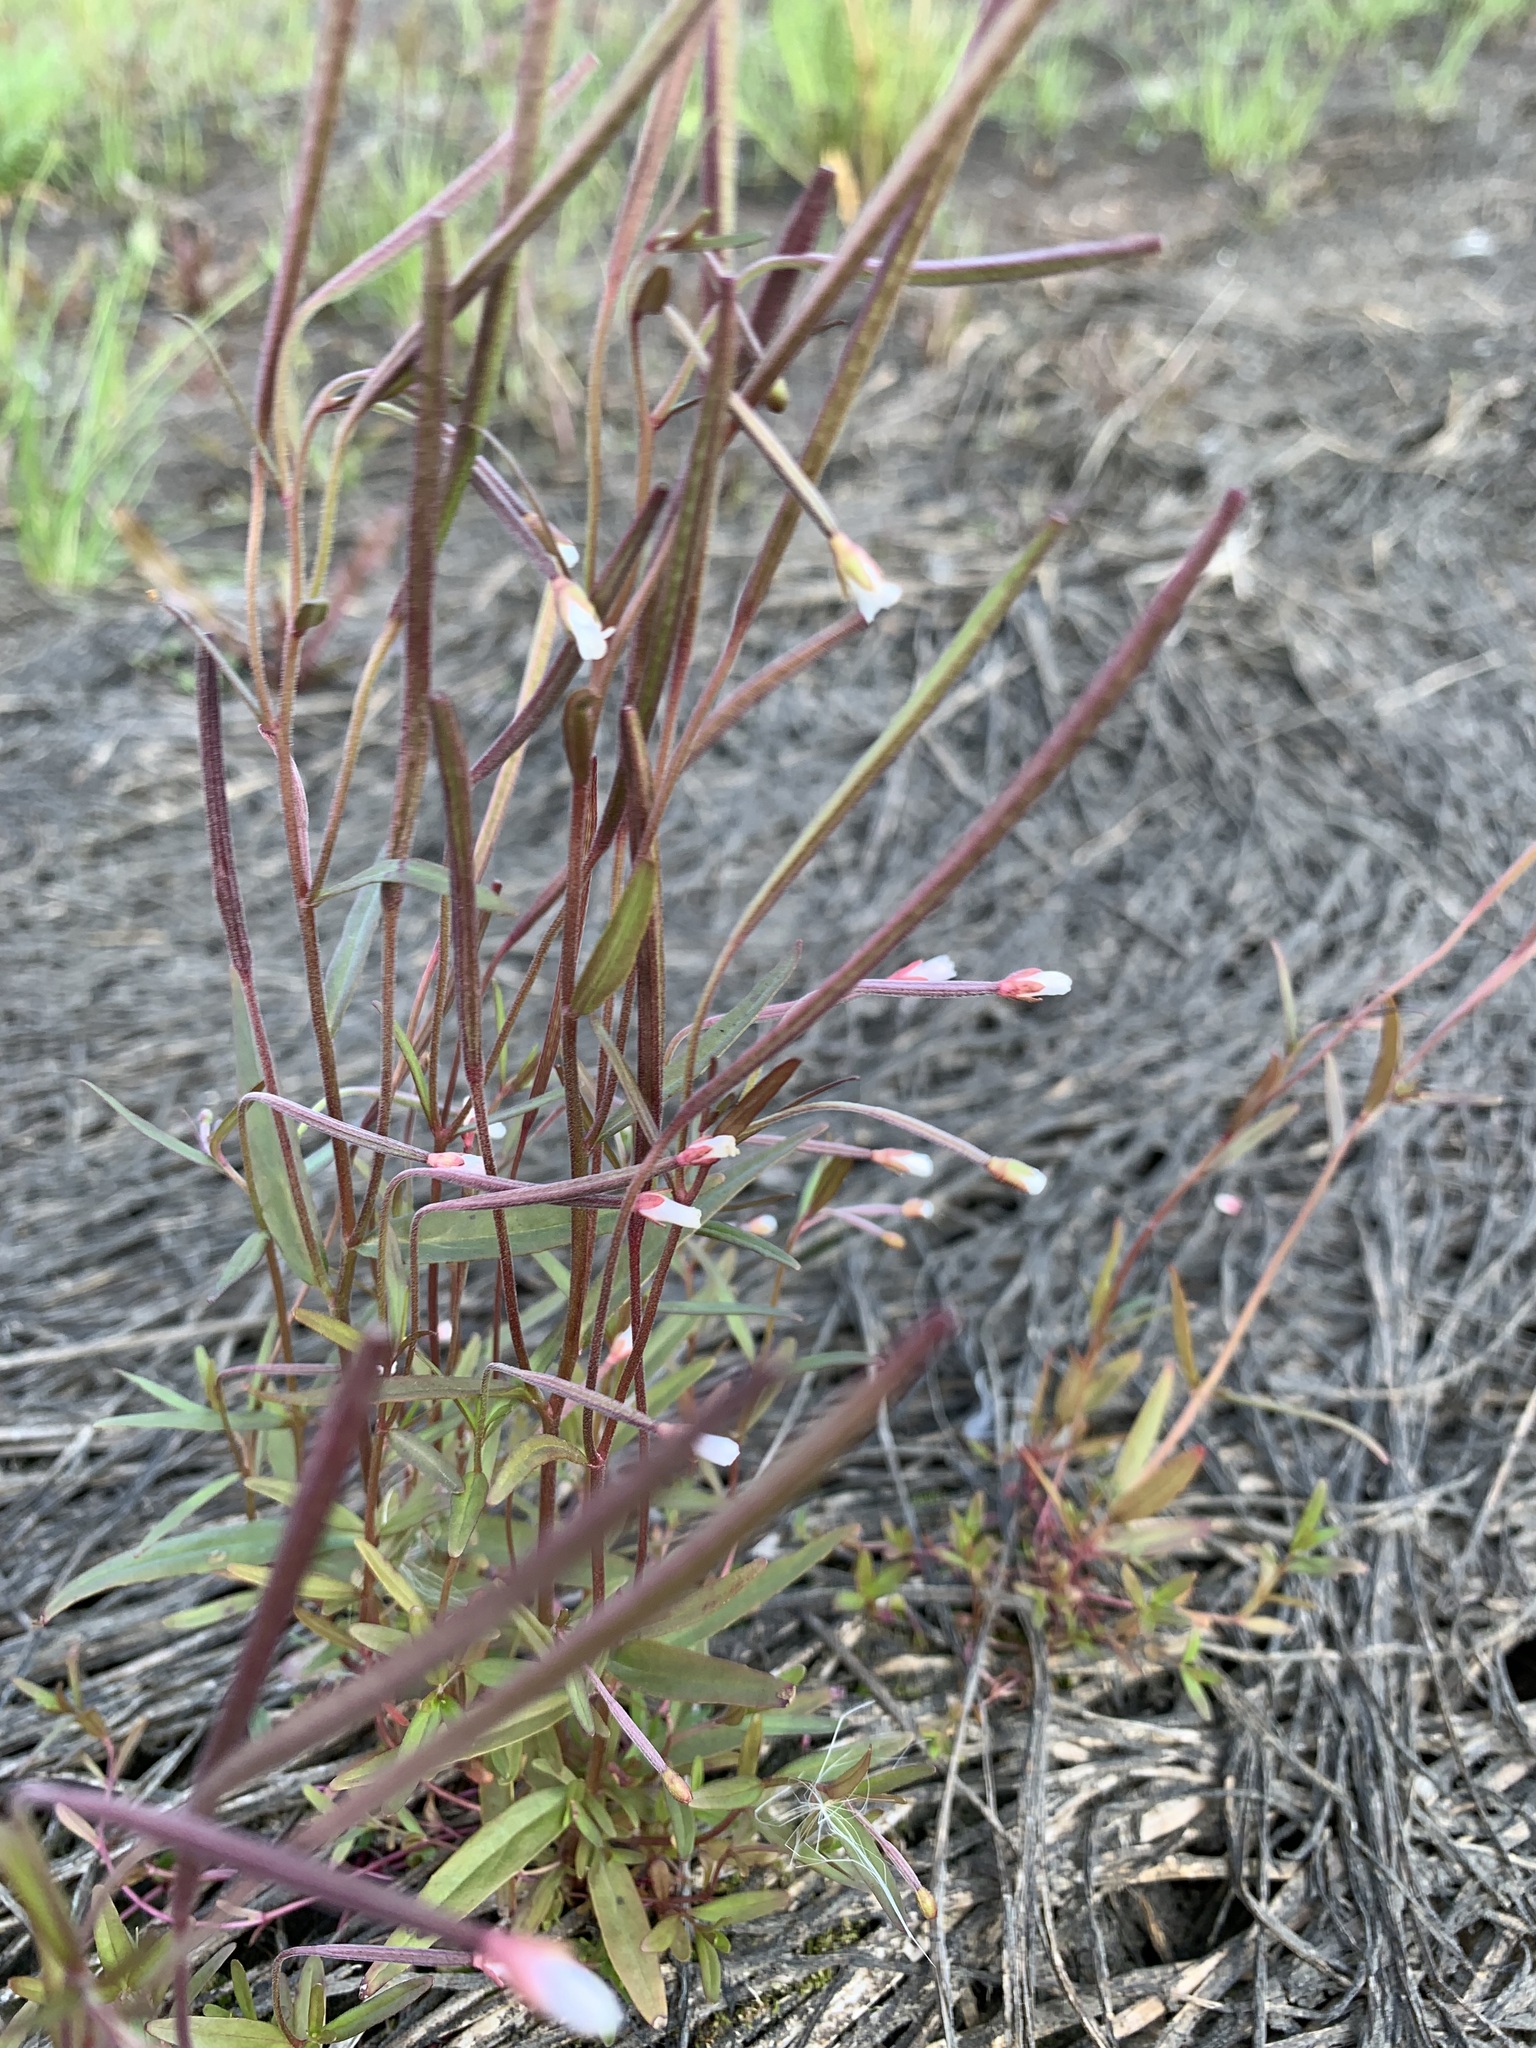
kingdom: Plantae
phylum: Tracheophyta
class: Magnoliopsida
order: Myrtales
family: Onagraceae
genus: Epilobium
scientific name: Epilobium palustre
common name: Marsh willowherb
